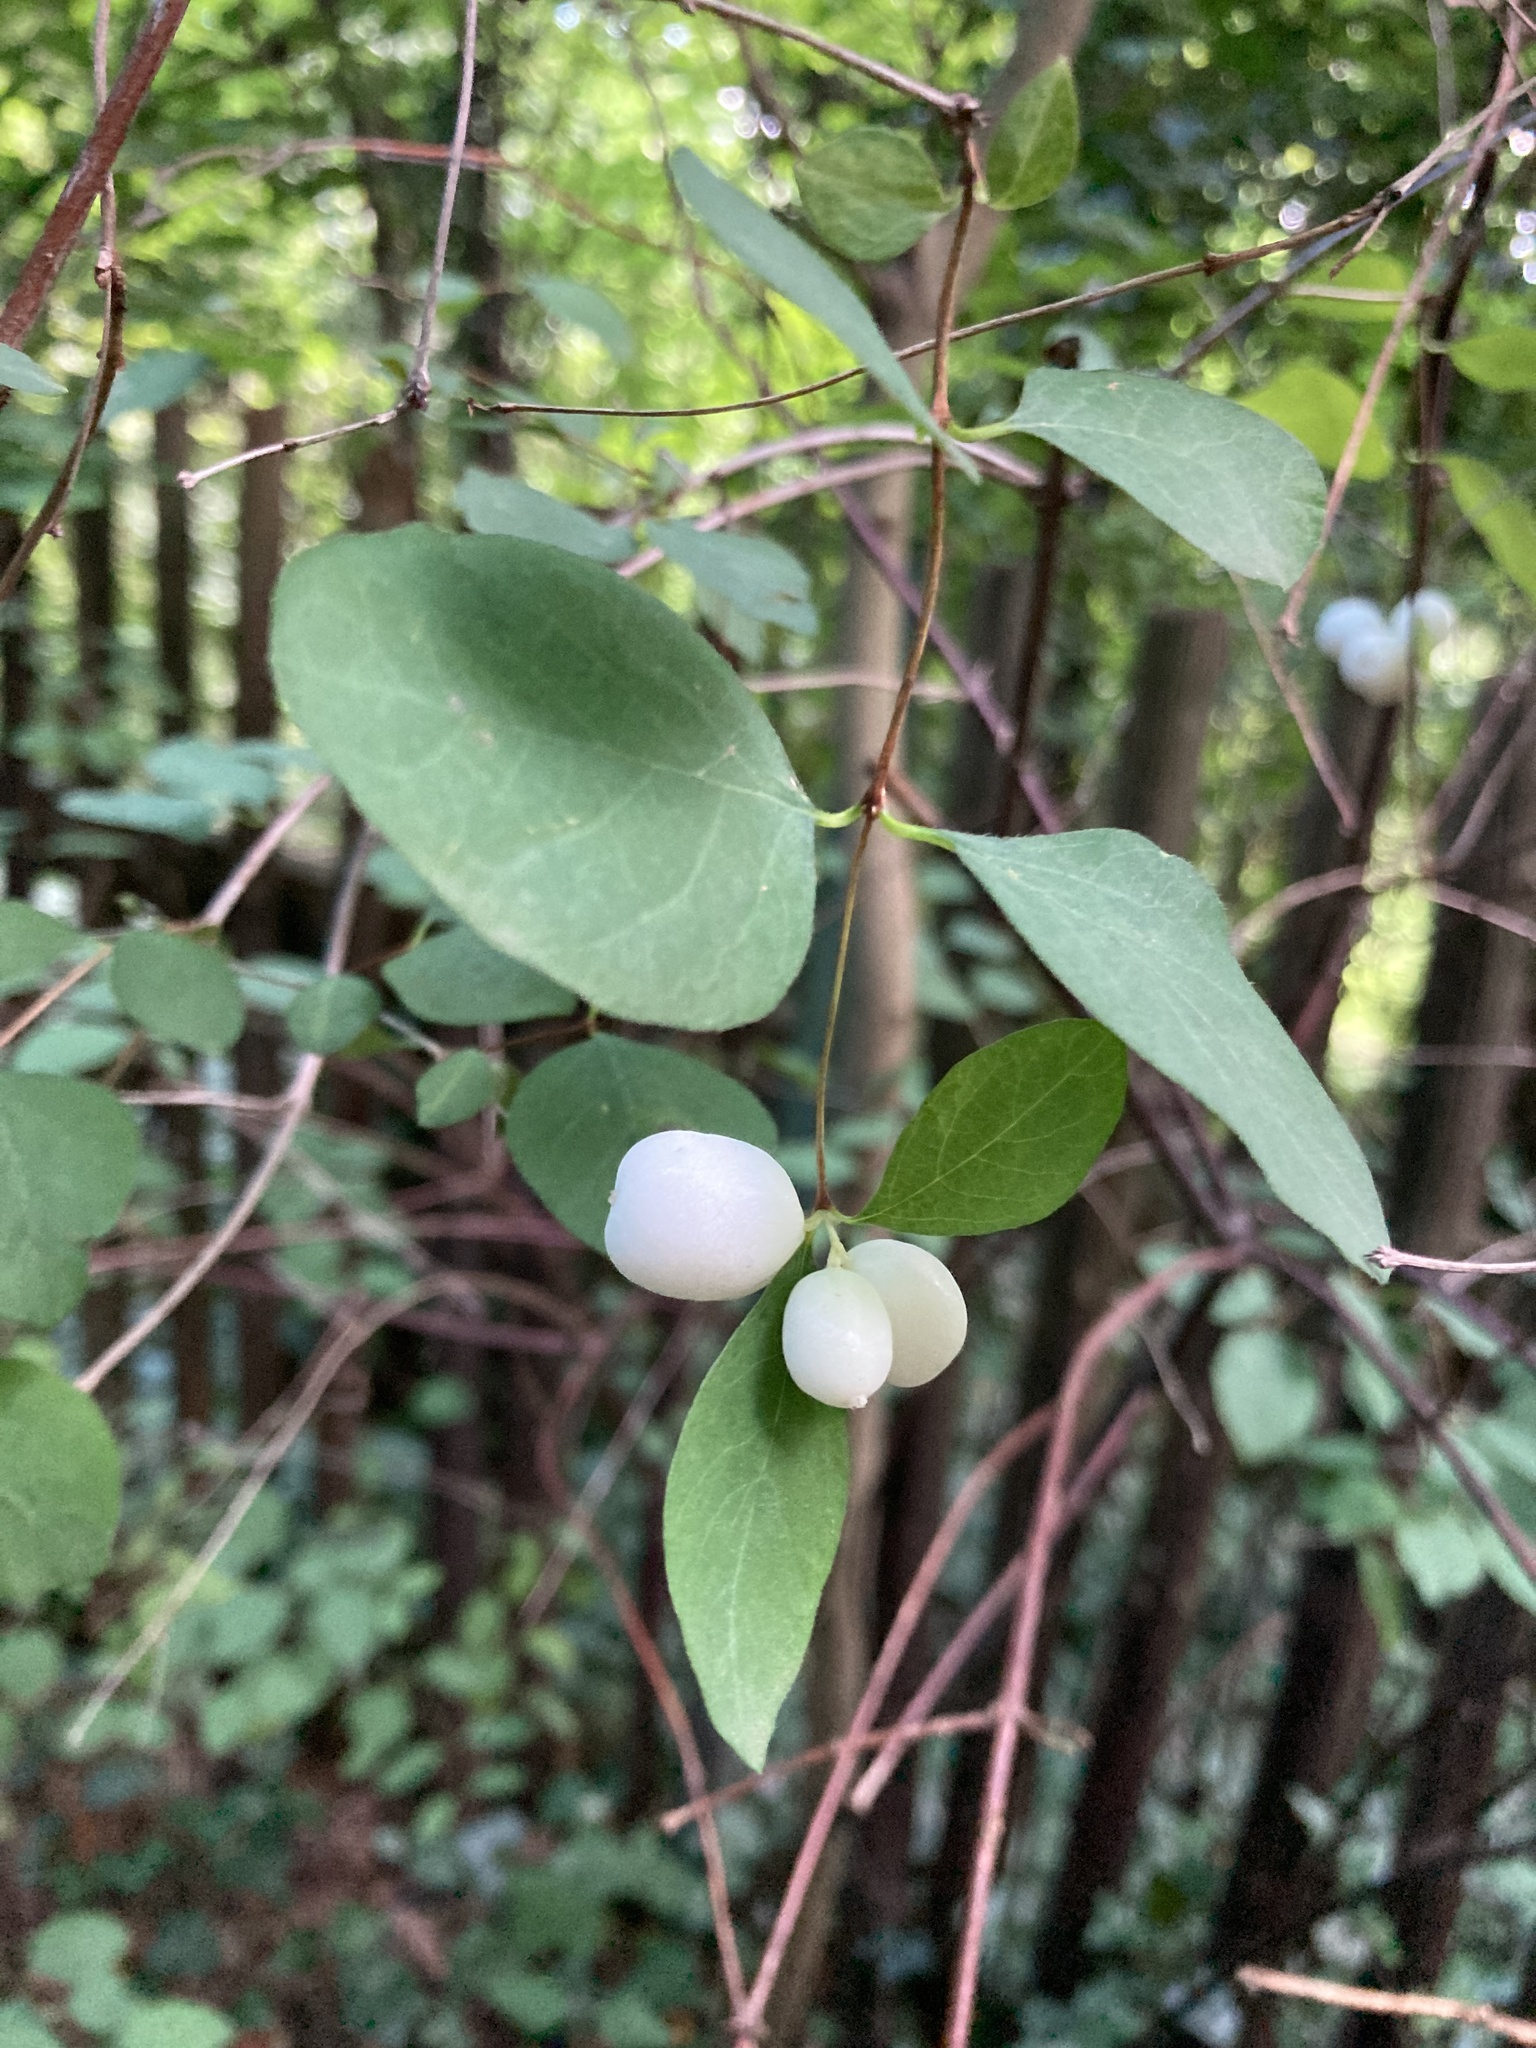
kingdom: Plantae
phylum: Tracheophyta
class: Magnoliopsida
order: Dipsacales
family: Caprifoliaceae
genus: Symphoricarpos
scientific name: Symphoricarpos albus
